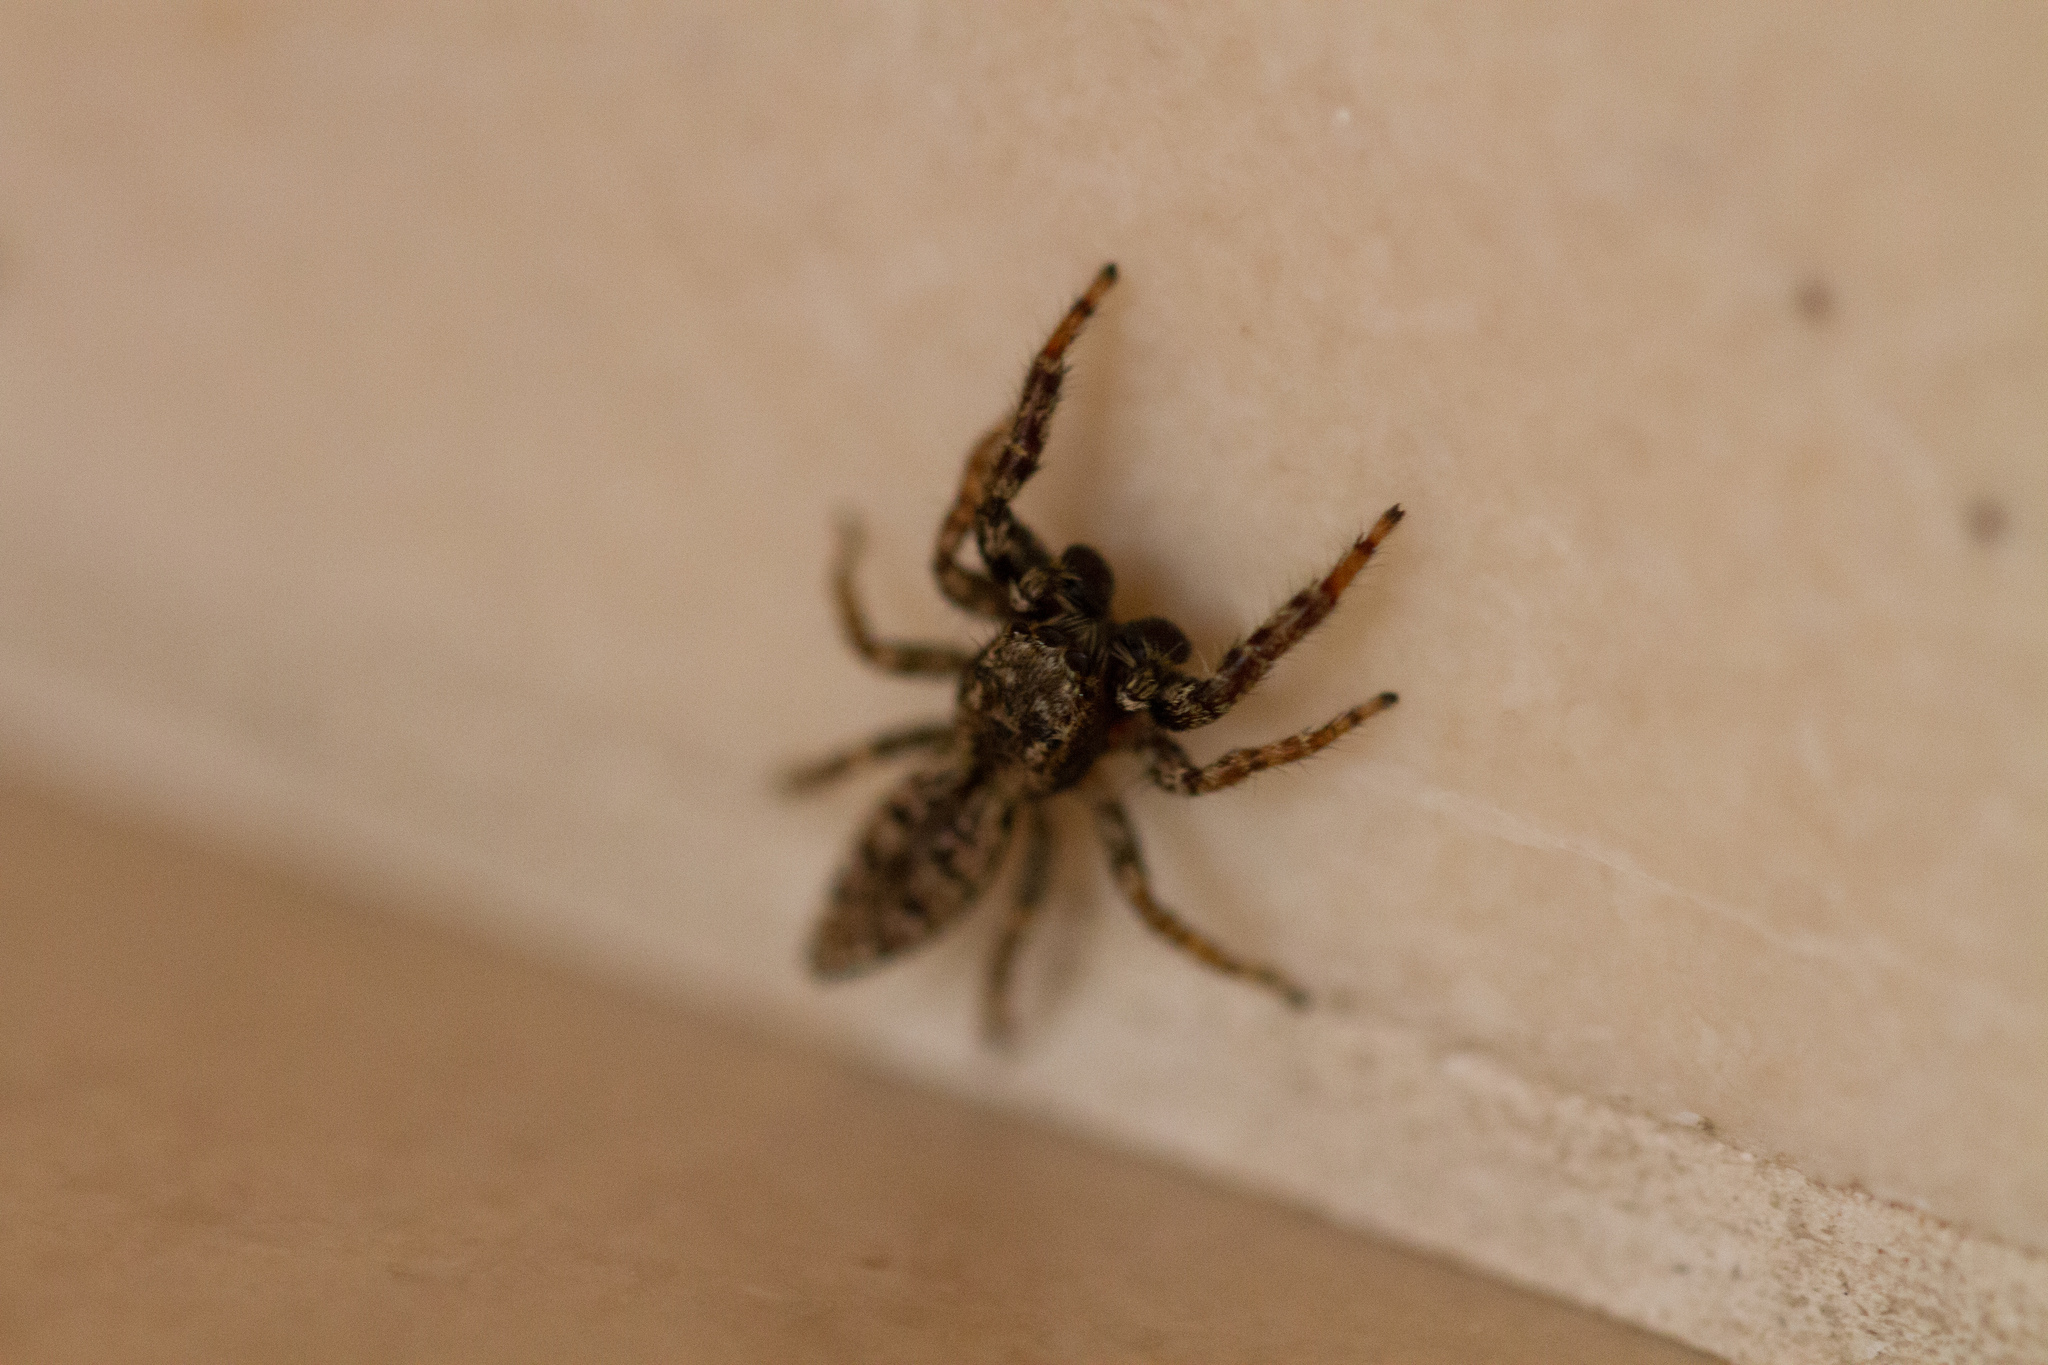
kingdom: Animalia
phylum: Arthropoda
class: Arachnida
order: Araneae
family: Salticidae
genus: Marpissa
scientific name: Marpissa muscosa
